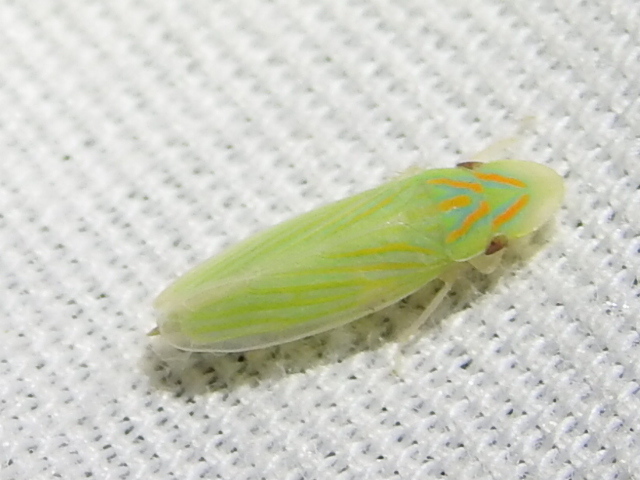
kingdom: Animalia
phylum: Arthropoda
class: Insecta
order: Hemiptera
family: Cicadellidae
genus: Spangbergiella
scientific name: Spangbergiella vulnerata
